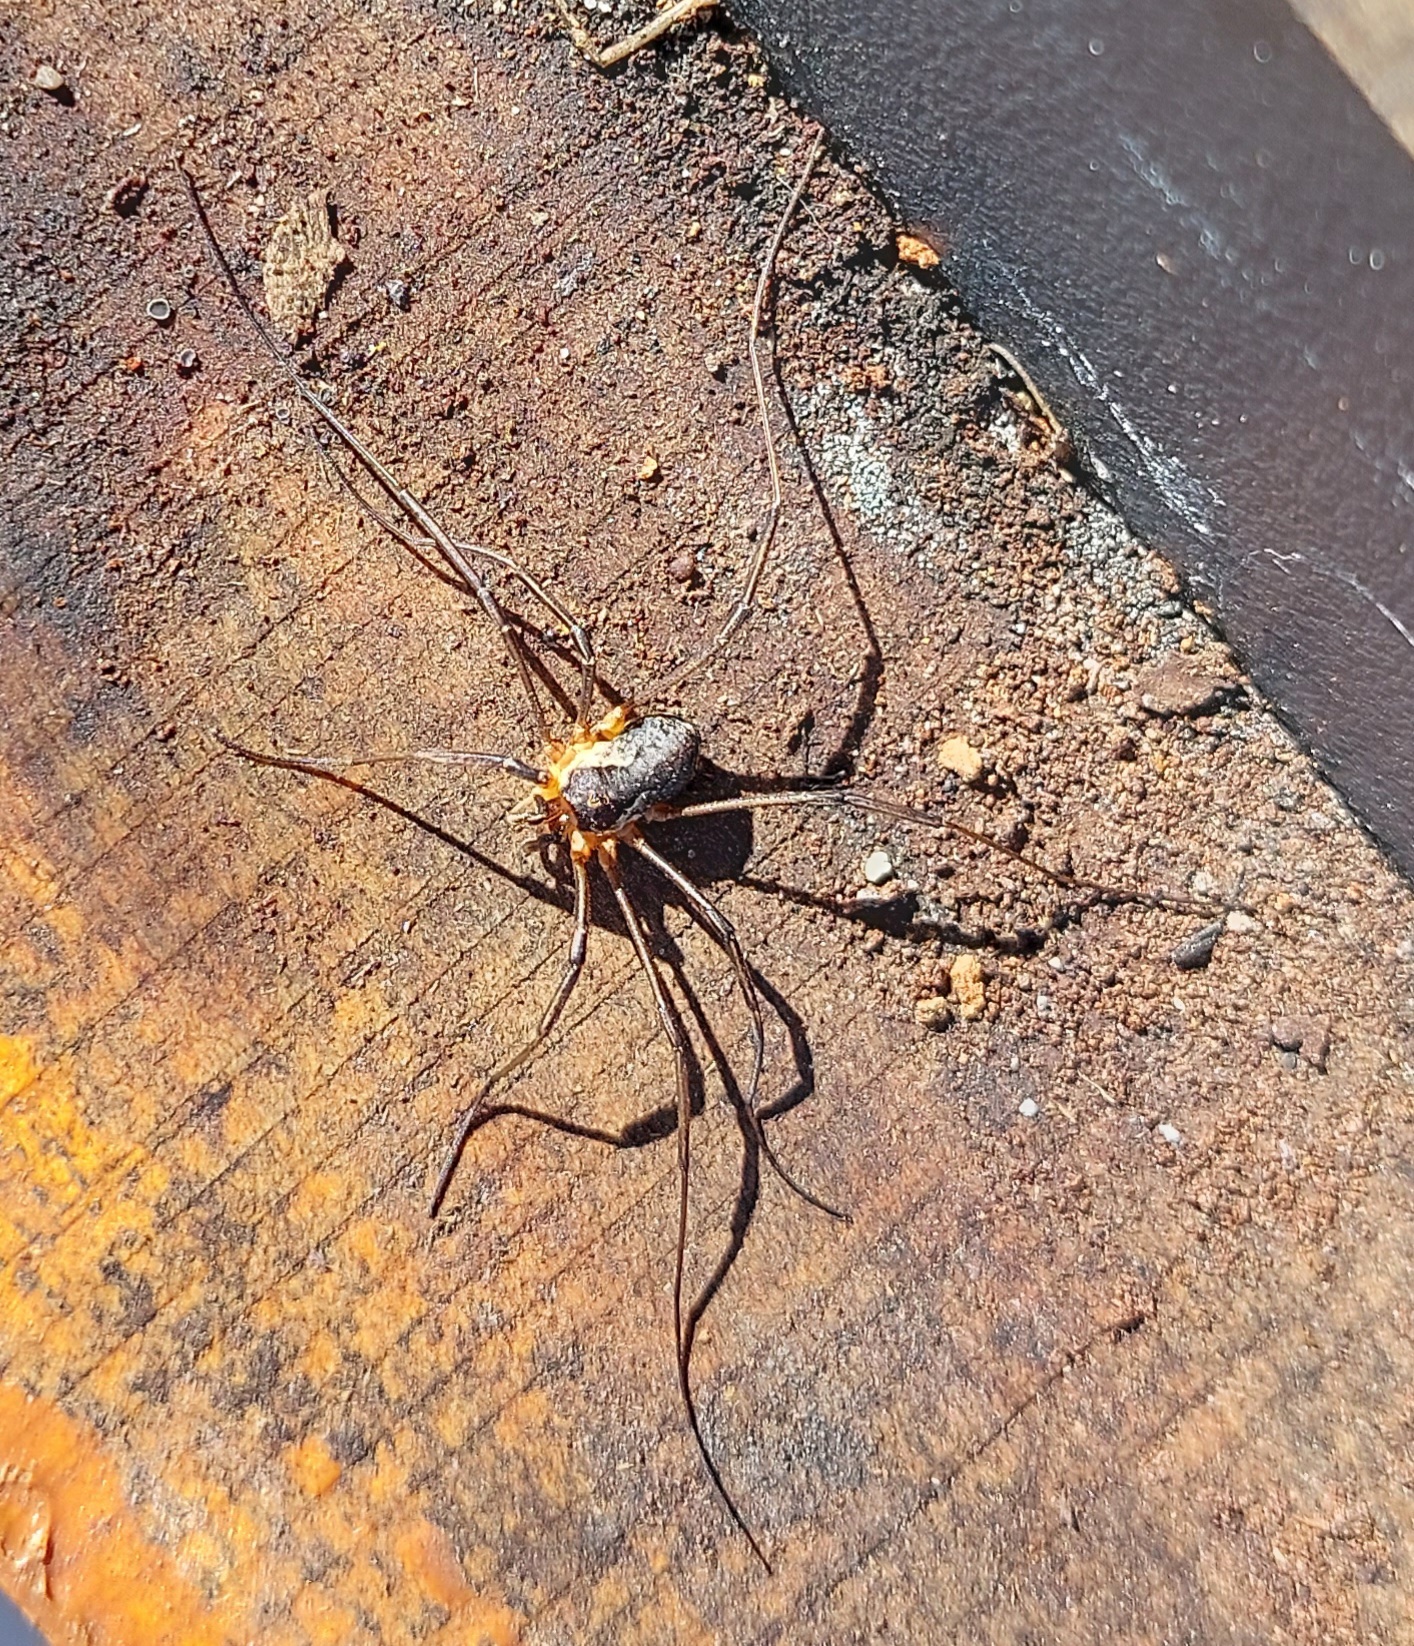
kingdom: Animalia
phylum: Arthropoda
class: Arachnida
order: Opiliones
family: Phalangiidae
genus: Mitopus
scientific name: Mitopus morio
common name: Saddleback harvestman
